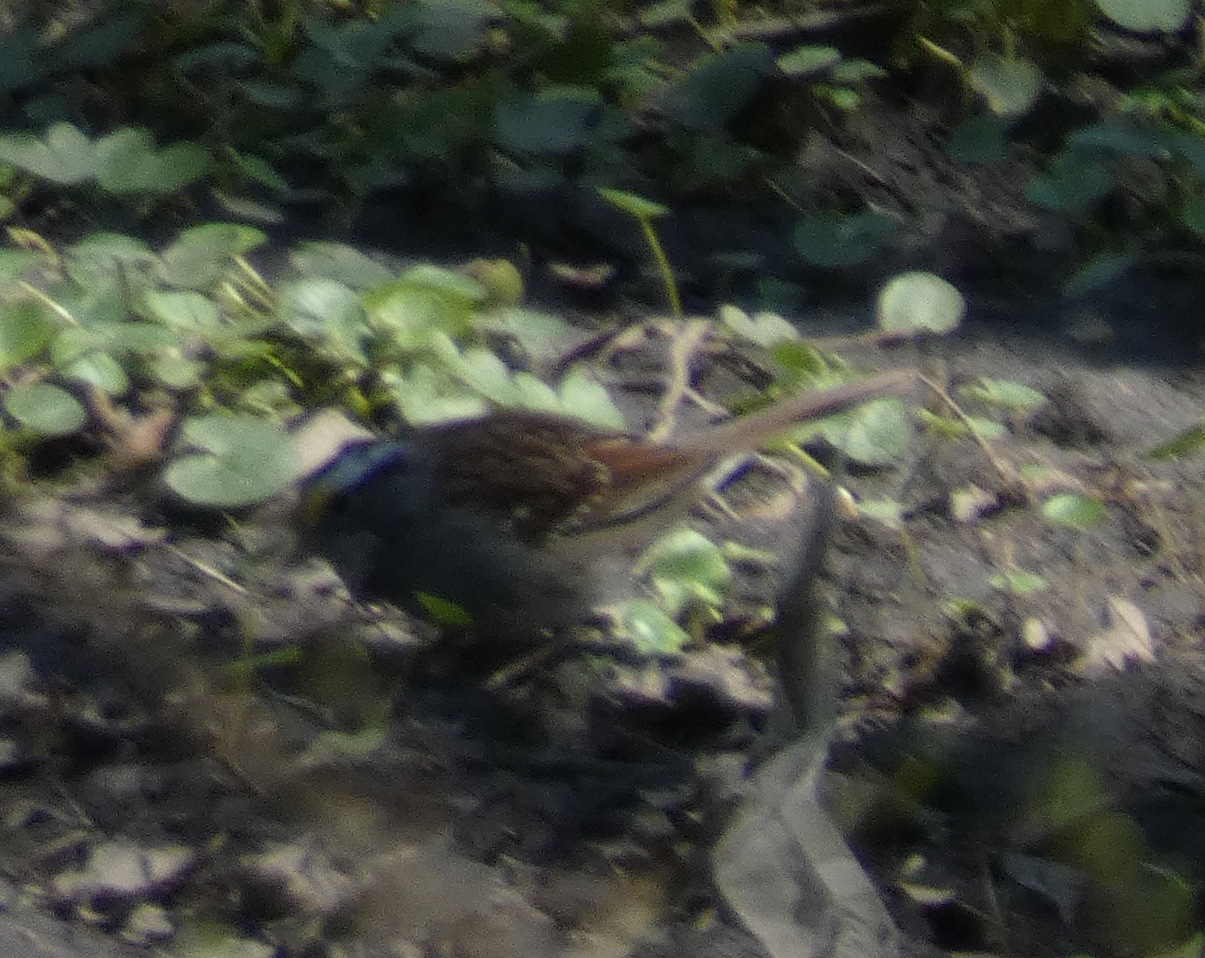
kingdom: Animalia
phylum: Chordata
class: Aves
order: Passeriformes
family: Passerellidae
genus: Zonotrichia
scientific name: Zonotrichia albicollis
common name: White-throated sparrow
